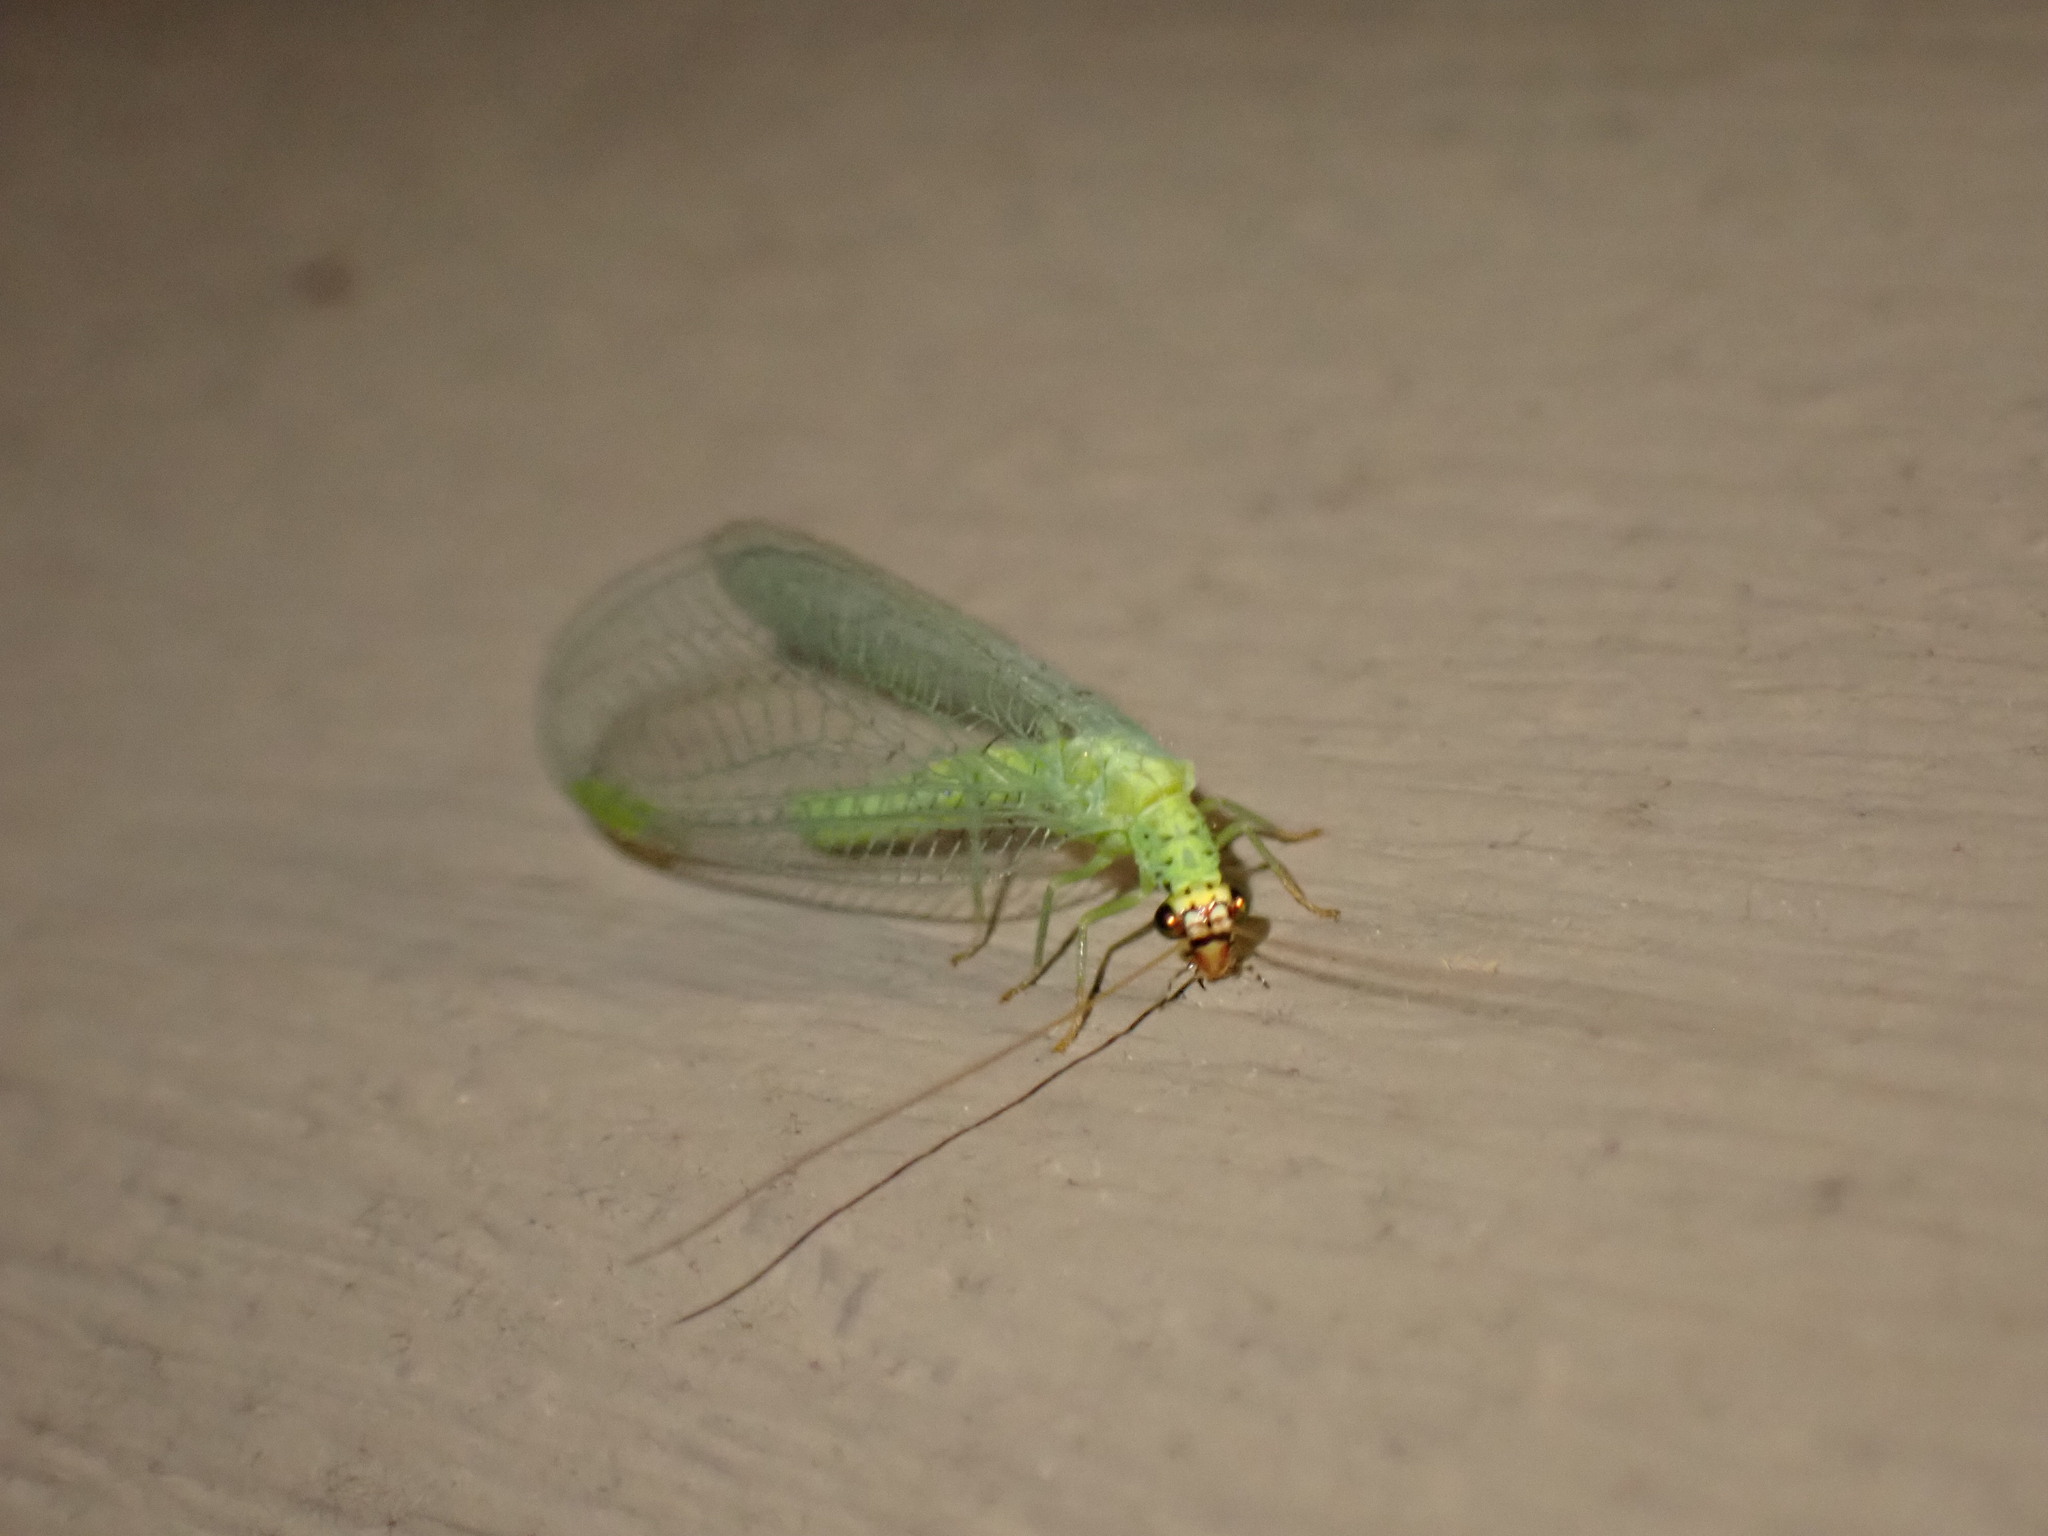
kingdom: Animalia
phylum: Arthropoda
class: Insecta
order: Neuroptera
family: Chrysopidae
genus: Chrysopa
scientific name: Chrysopa oculata
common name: Golden-eyed lacewing
